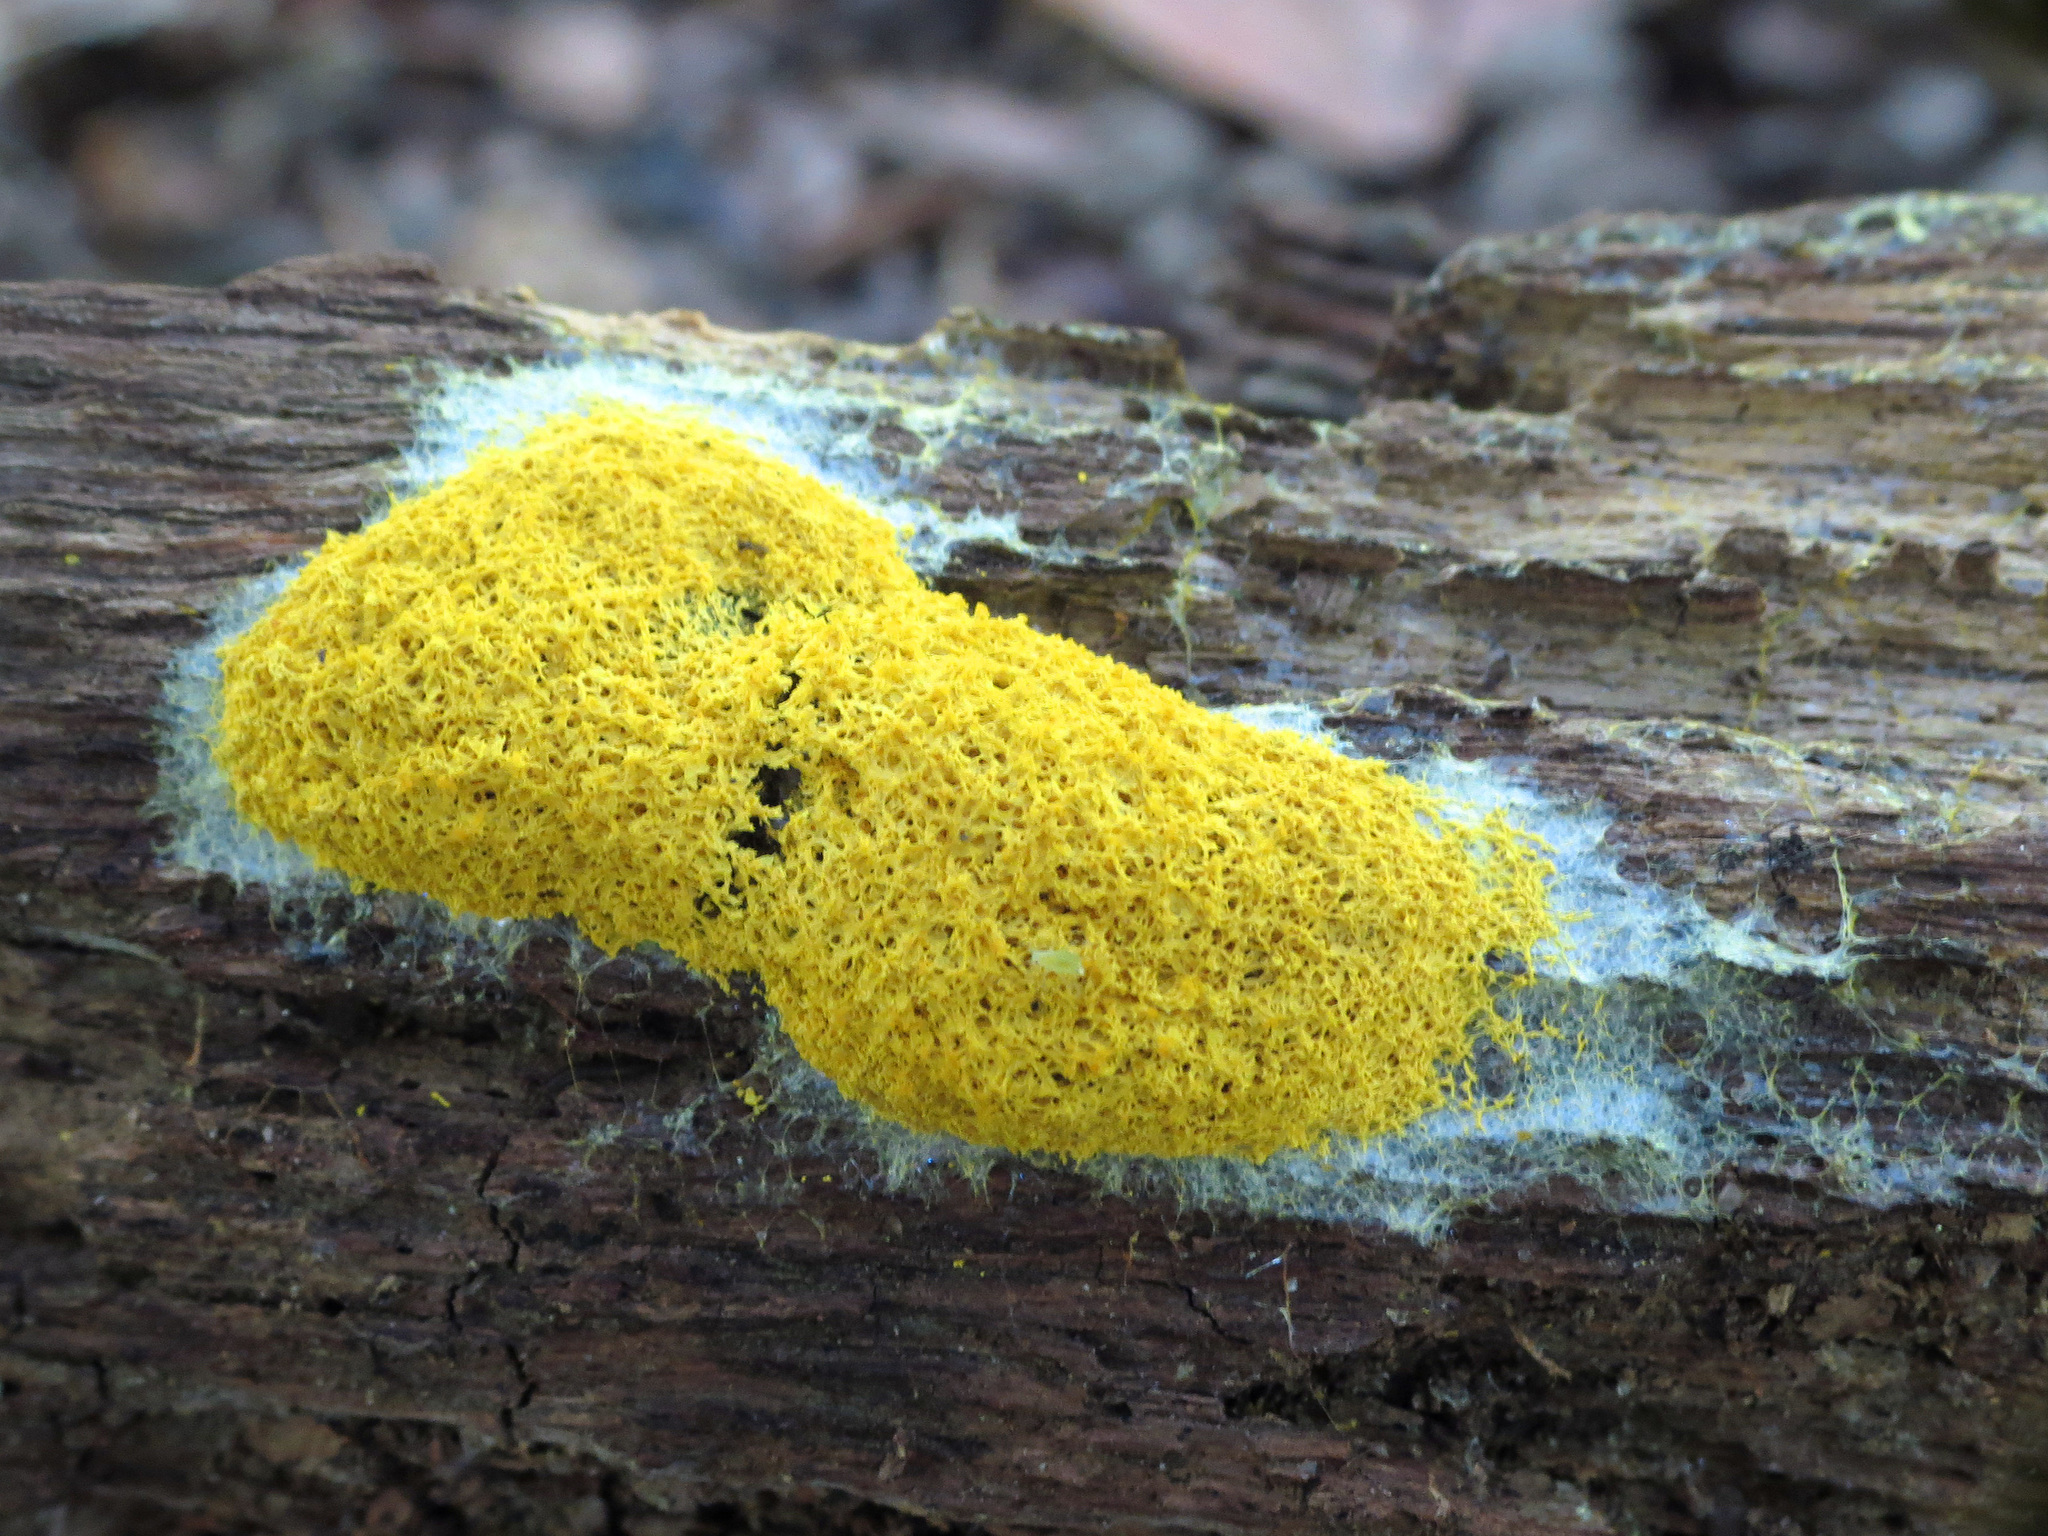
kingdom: Protozoa
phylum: Mycetozoa
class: Myxomycetes
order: Physarales
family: Physaraceae
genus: Fuligo
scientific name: Fuligo septica
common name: Dog vomit slime mold
